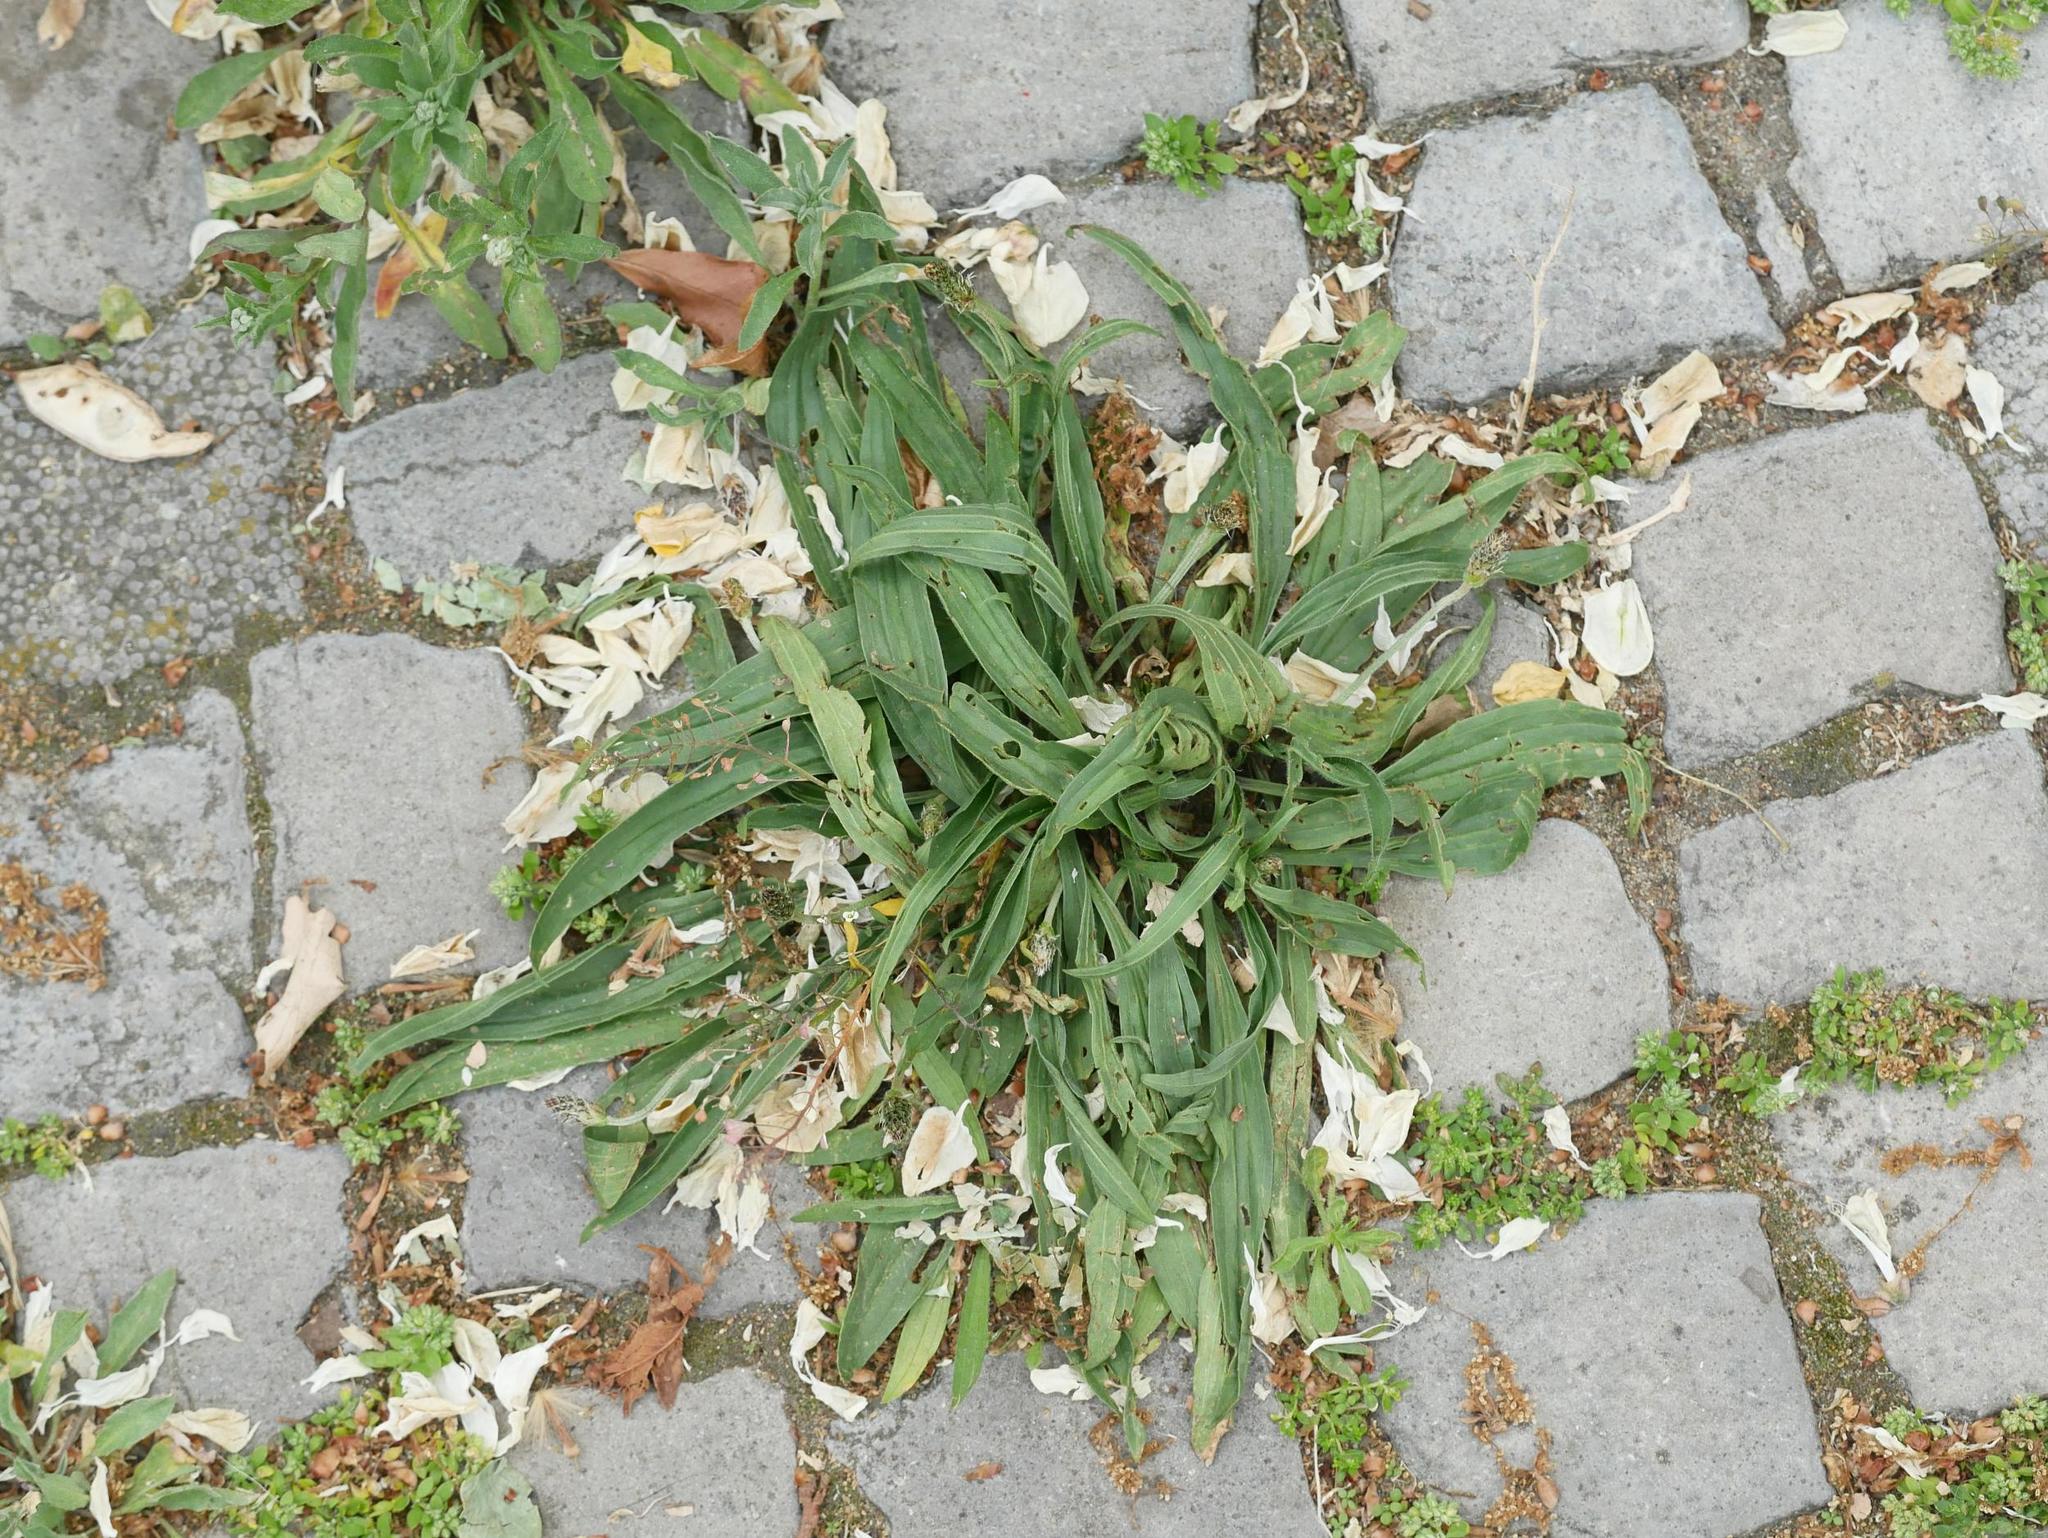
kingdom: Plantae
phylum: Tracheophyta
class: Magnoliopsida
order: Lamiales
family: Plantaginaceae
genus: Plantago
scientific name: Plantago lanceolata
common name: Ribwort plantain
